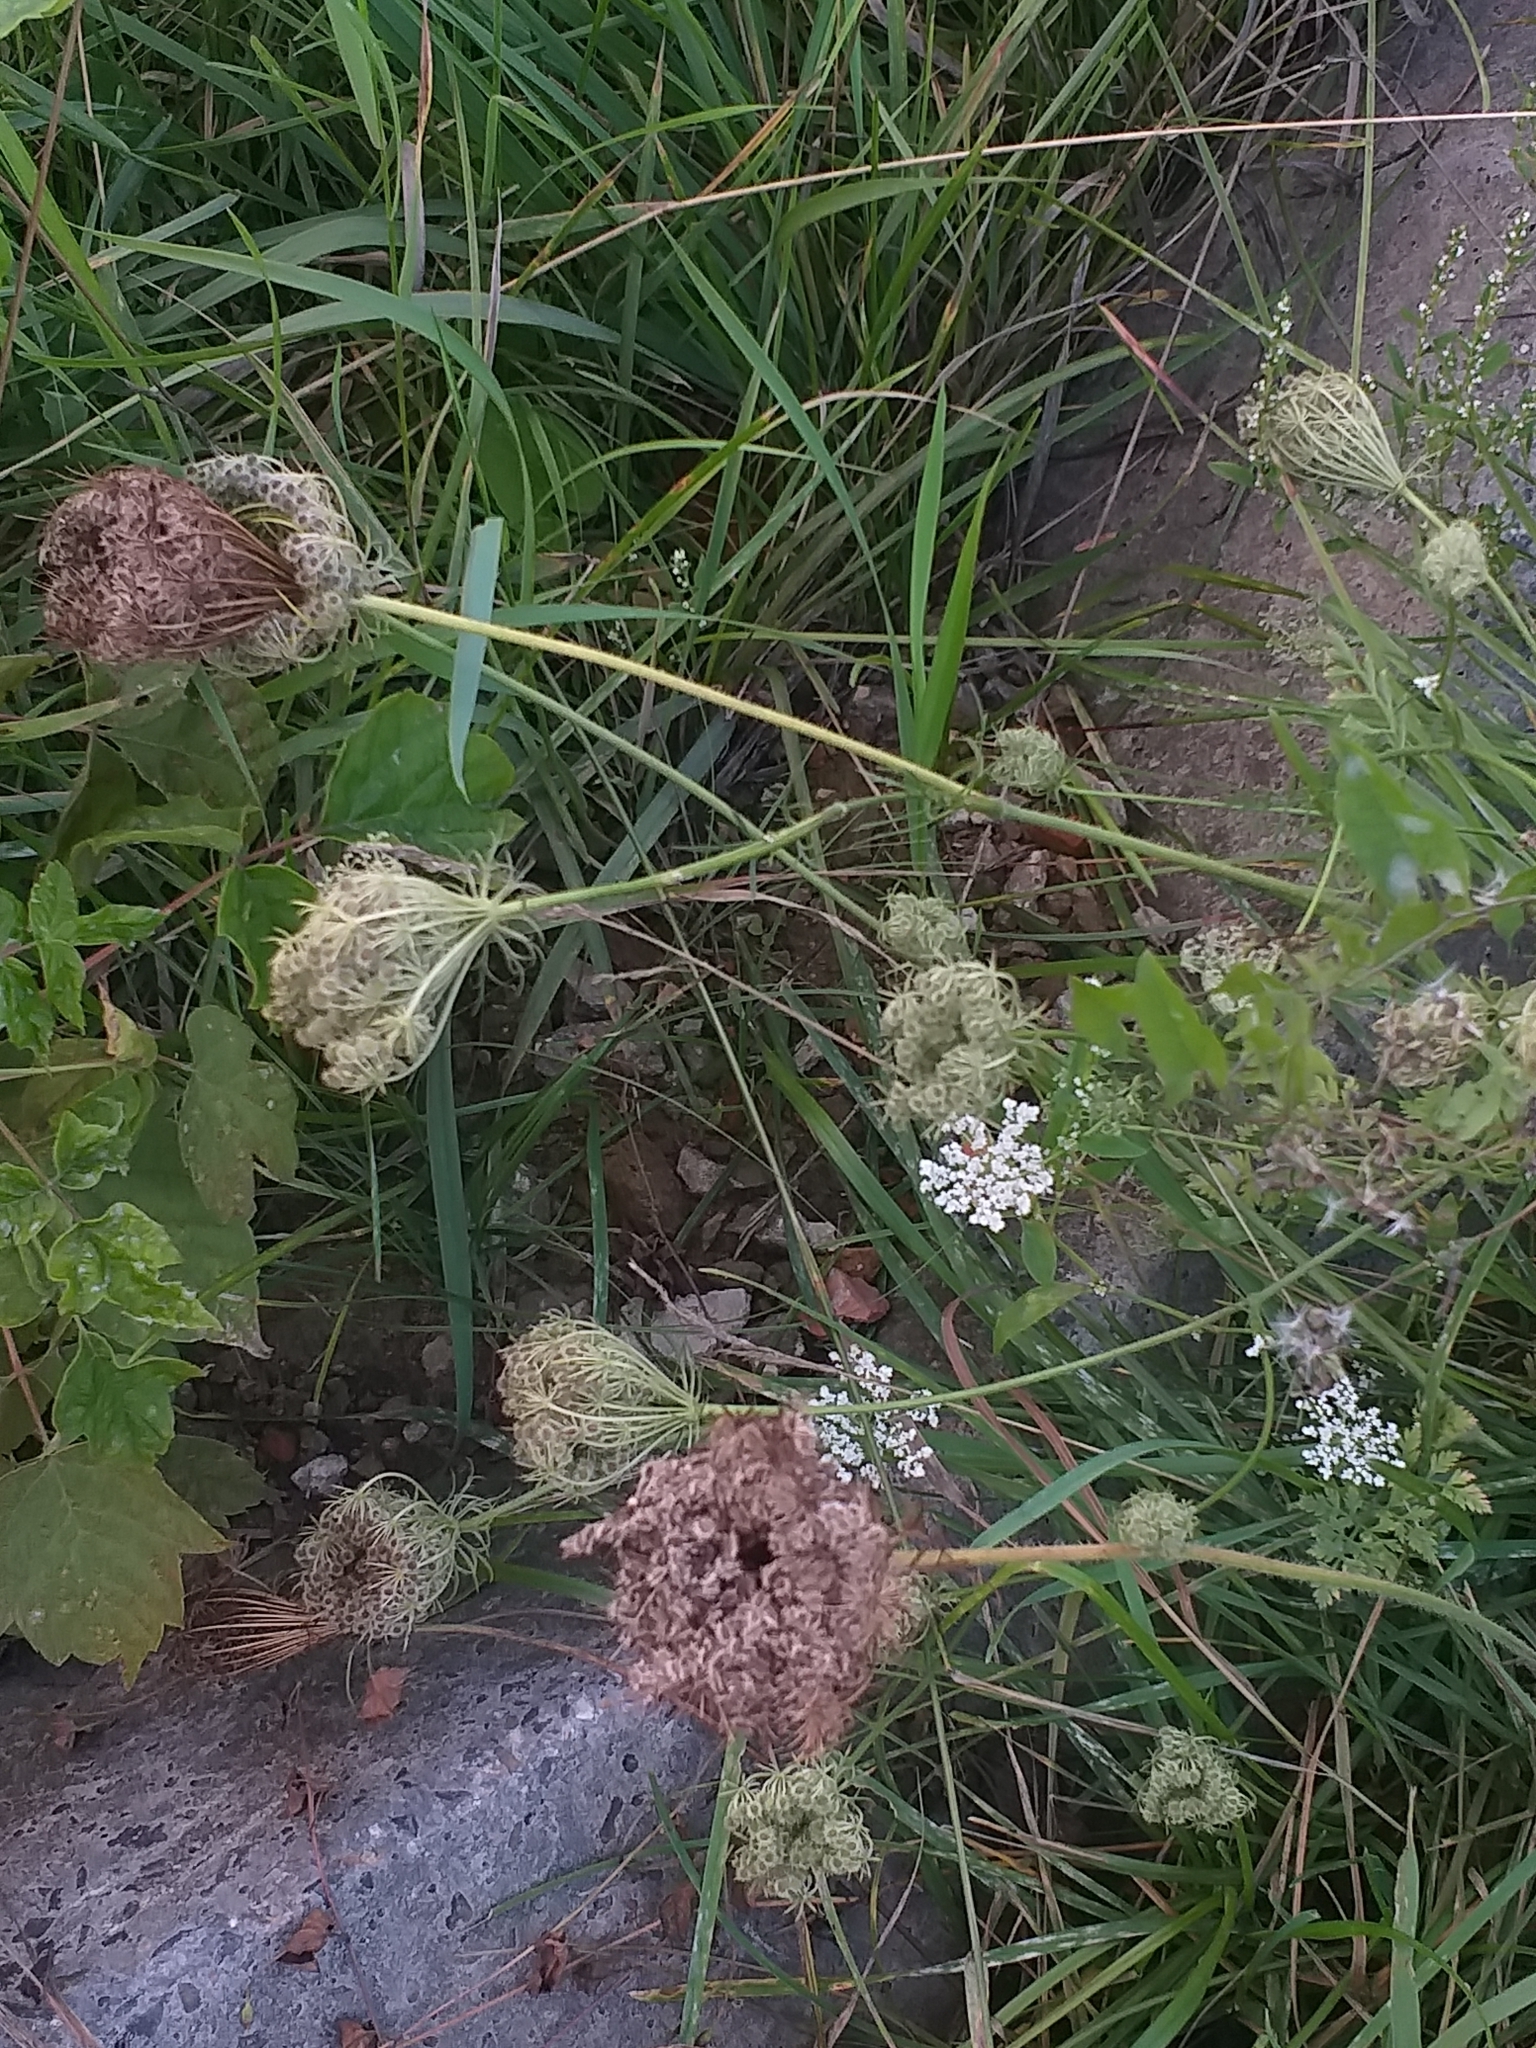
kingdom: Plantae
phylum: Tracheophyta
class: Magnoliopsida
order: Apiales
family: Apiaceae
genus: Daucus
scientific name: Daucus carota
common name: Wild carrot
